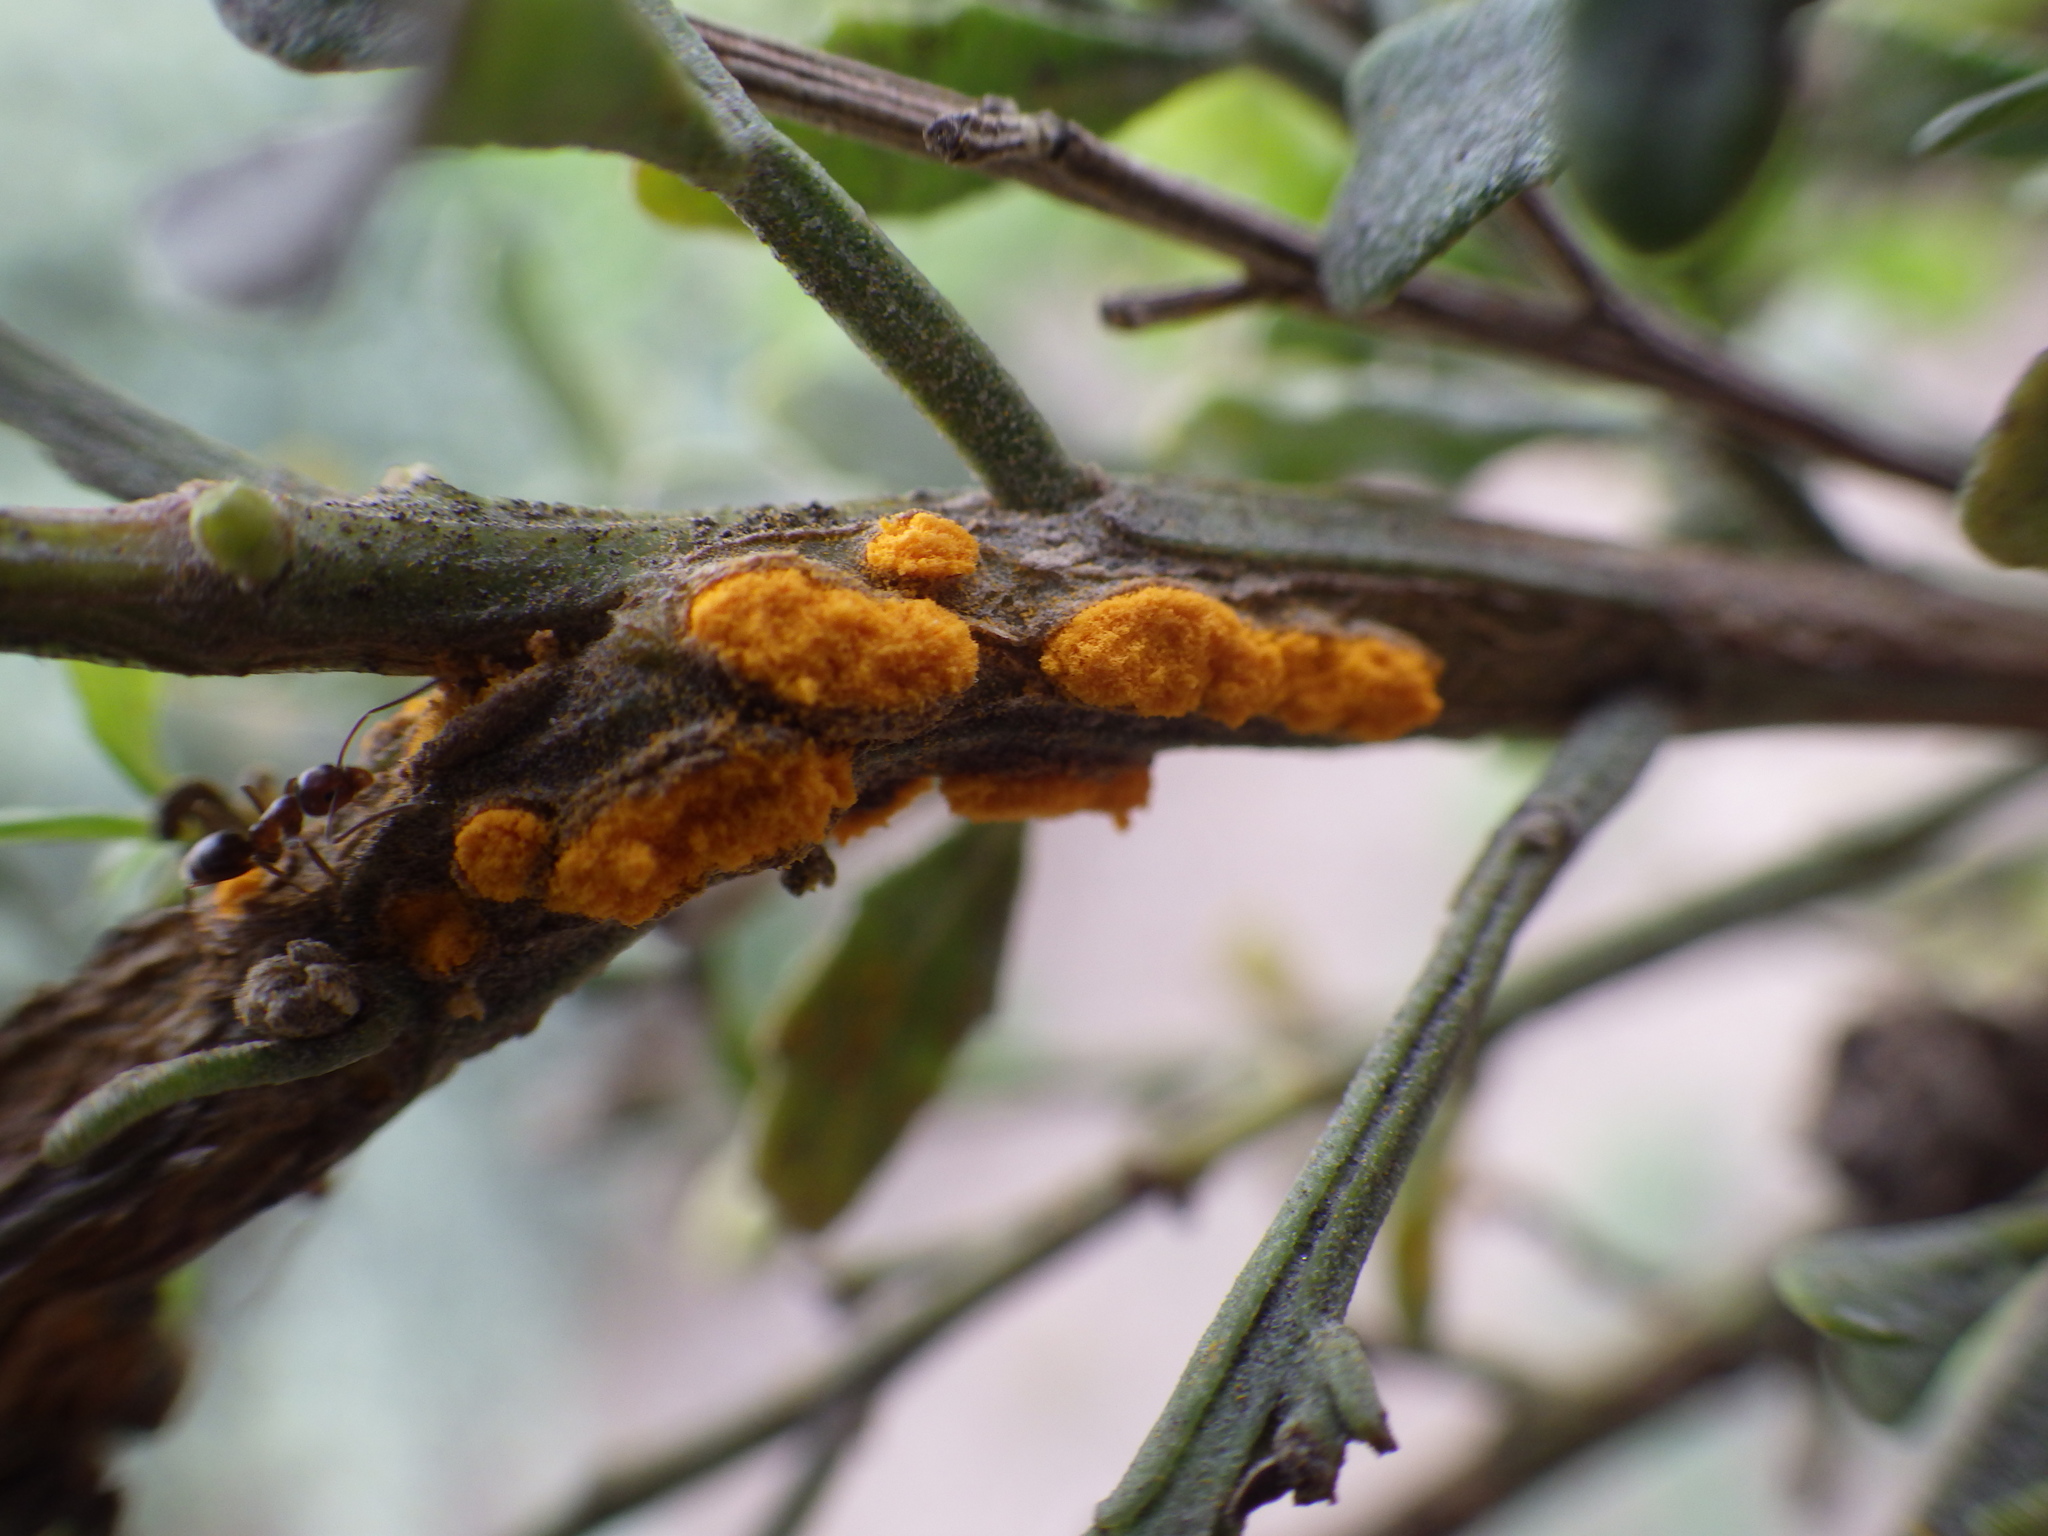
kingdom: Fungi
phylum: Basidiomycota
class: Pucciniomycetes
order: Pucciniales
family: Pucciniaceae
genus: Eriosporangium
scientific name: Eriosporangium evadens
